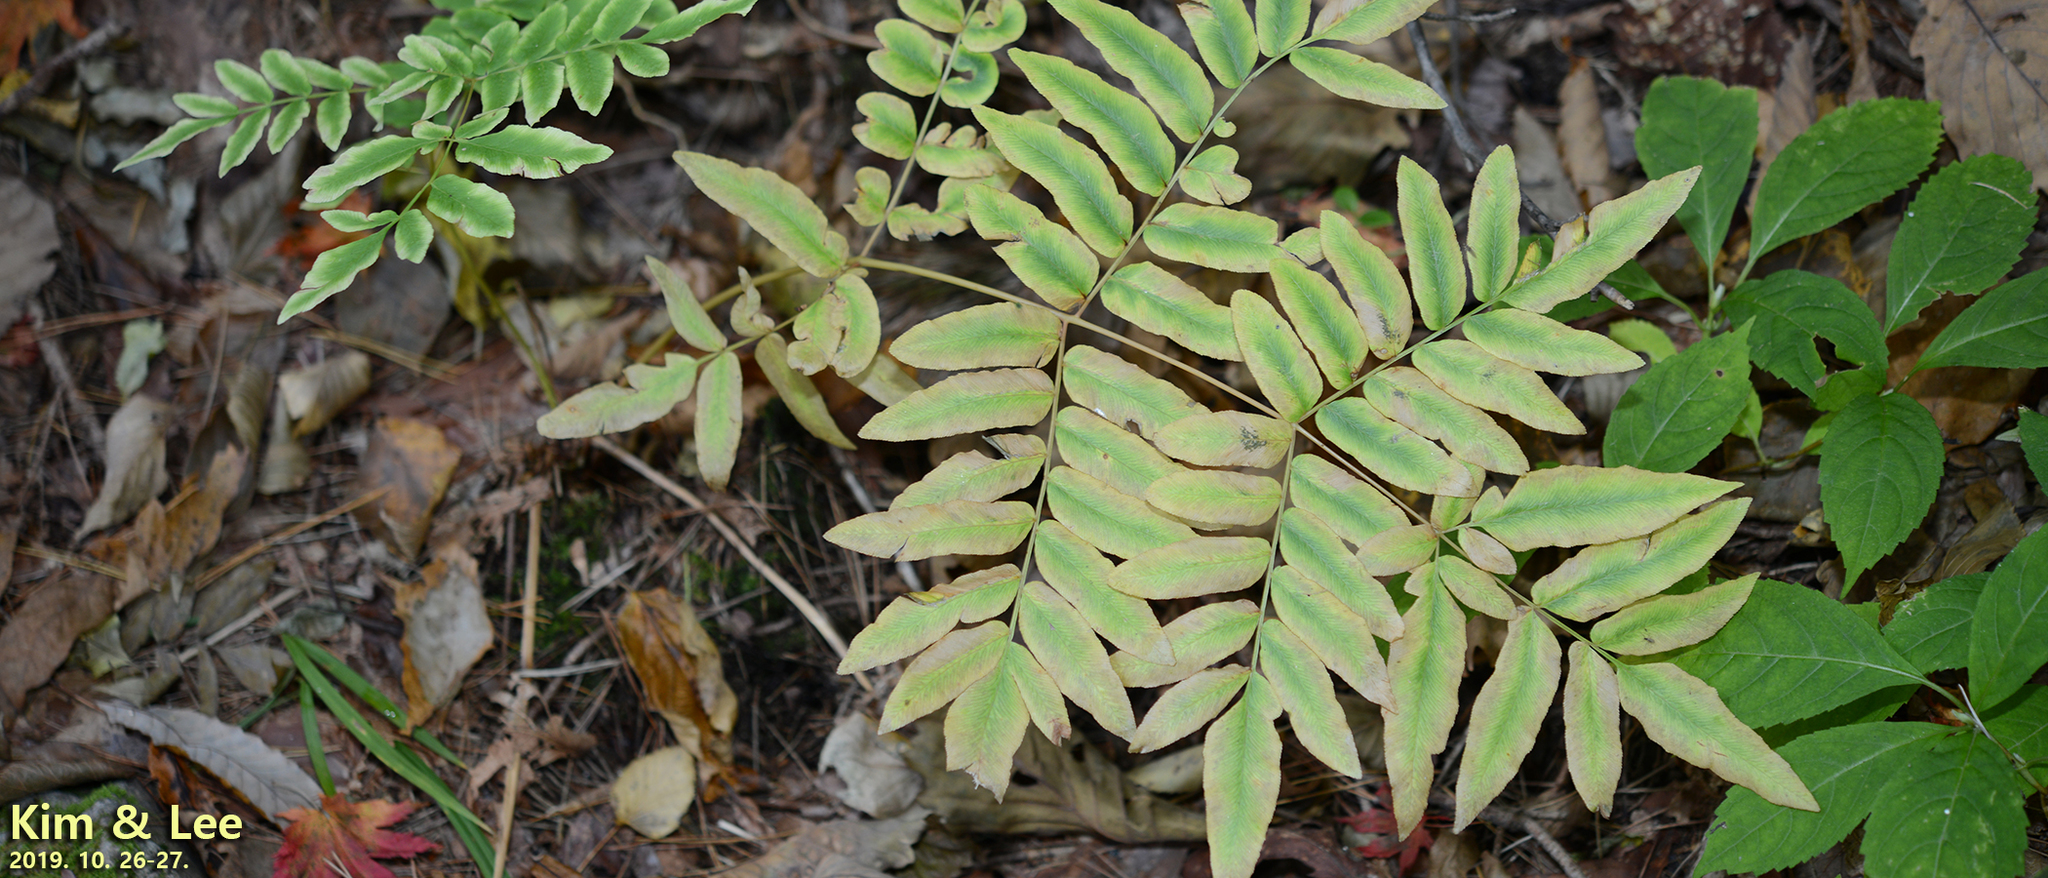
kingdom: Plantae
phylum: Tracheophyta
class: Polypodiopsida
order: Osmundales
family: Osmundaceae
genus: Osmunda
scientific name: Osmunda japonica
